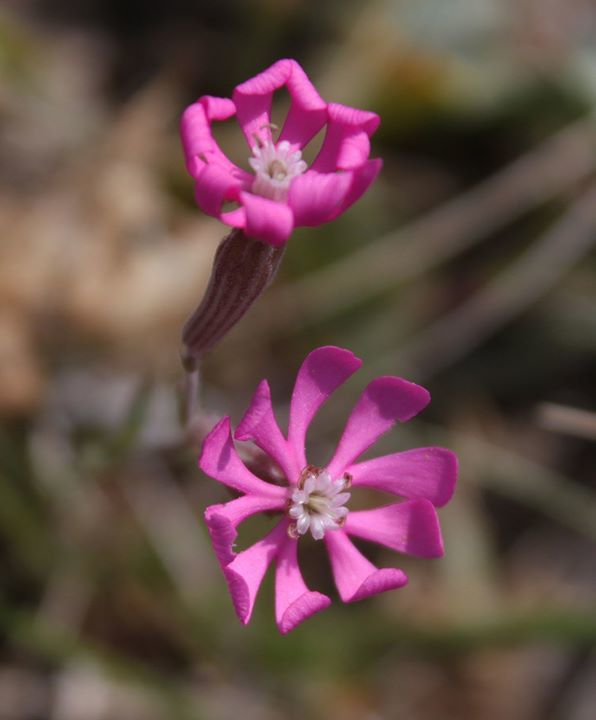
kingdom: Plantae
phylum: Tracheophyta
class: Magnoliopsida
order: Caryophyllales
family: Caryophyllaceae
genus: Silene
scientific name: Silene colorata
